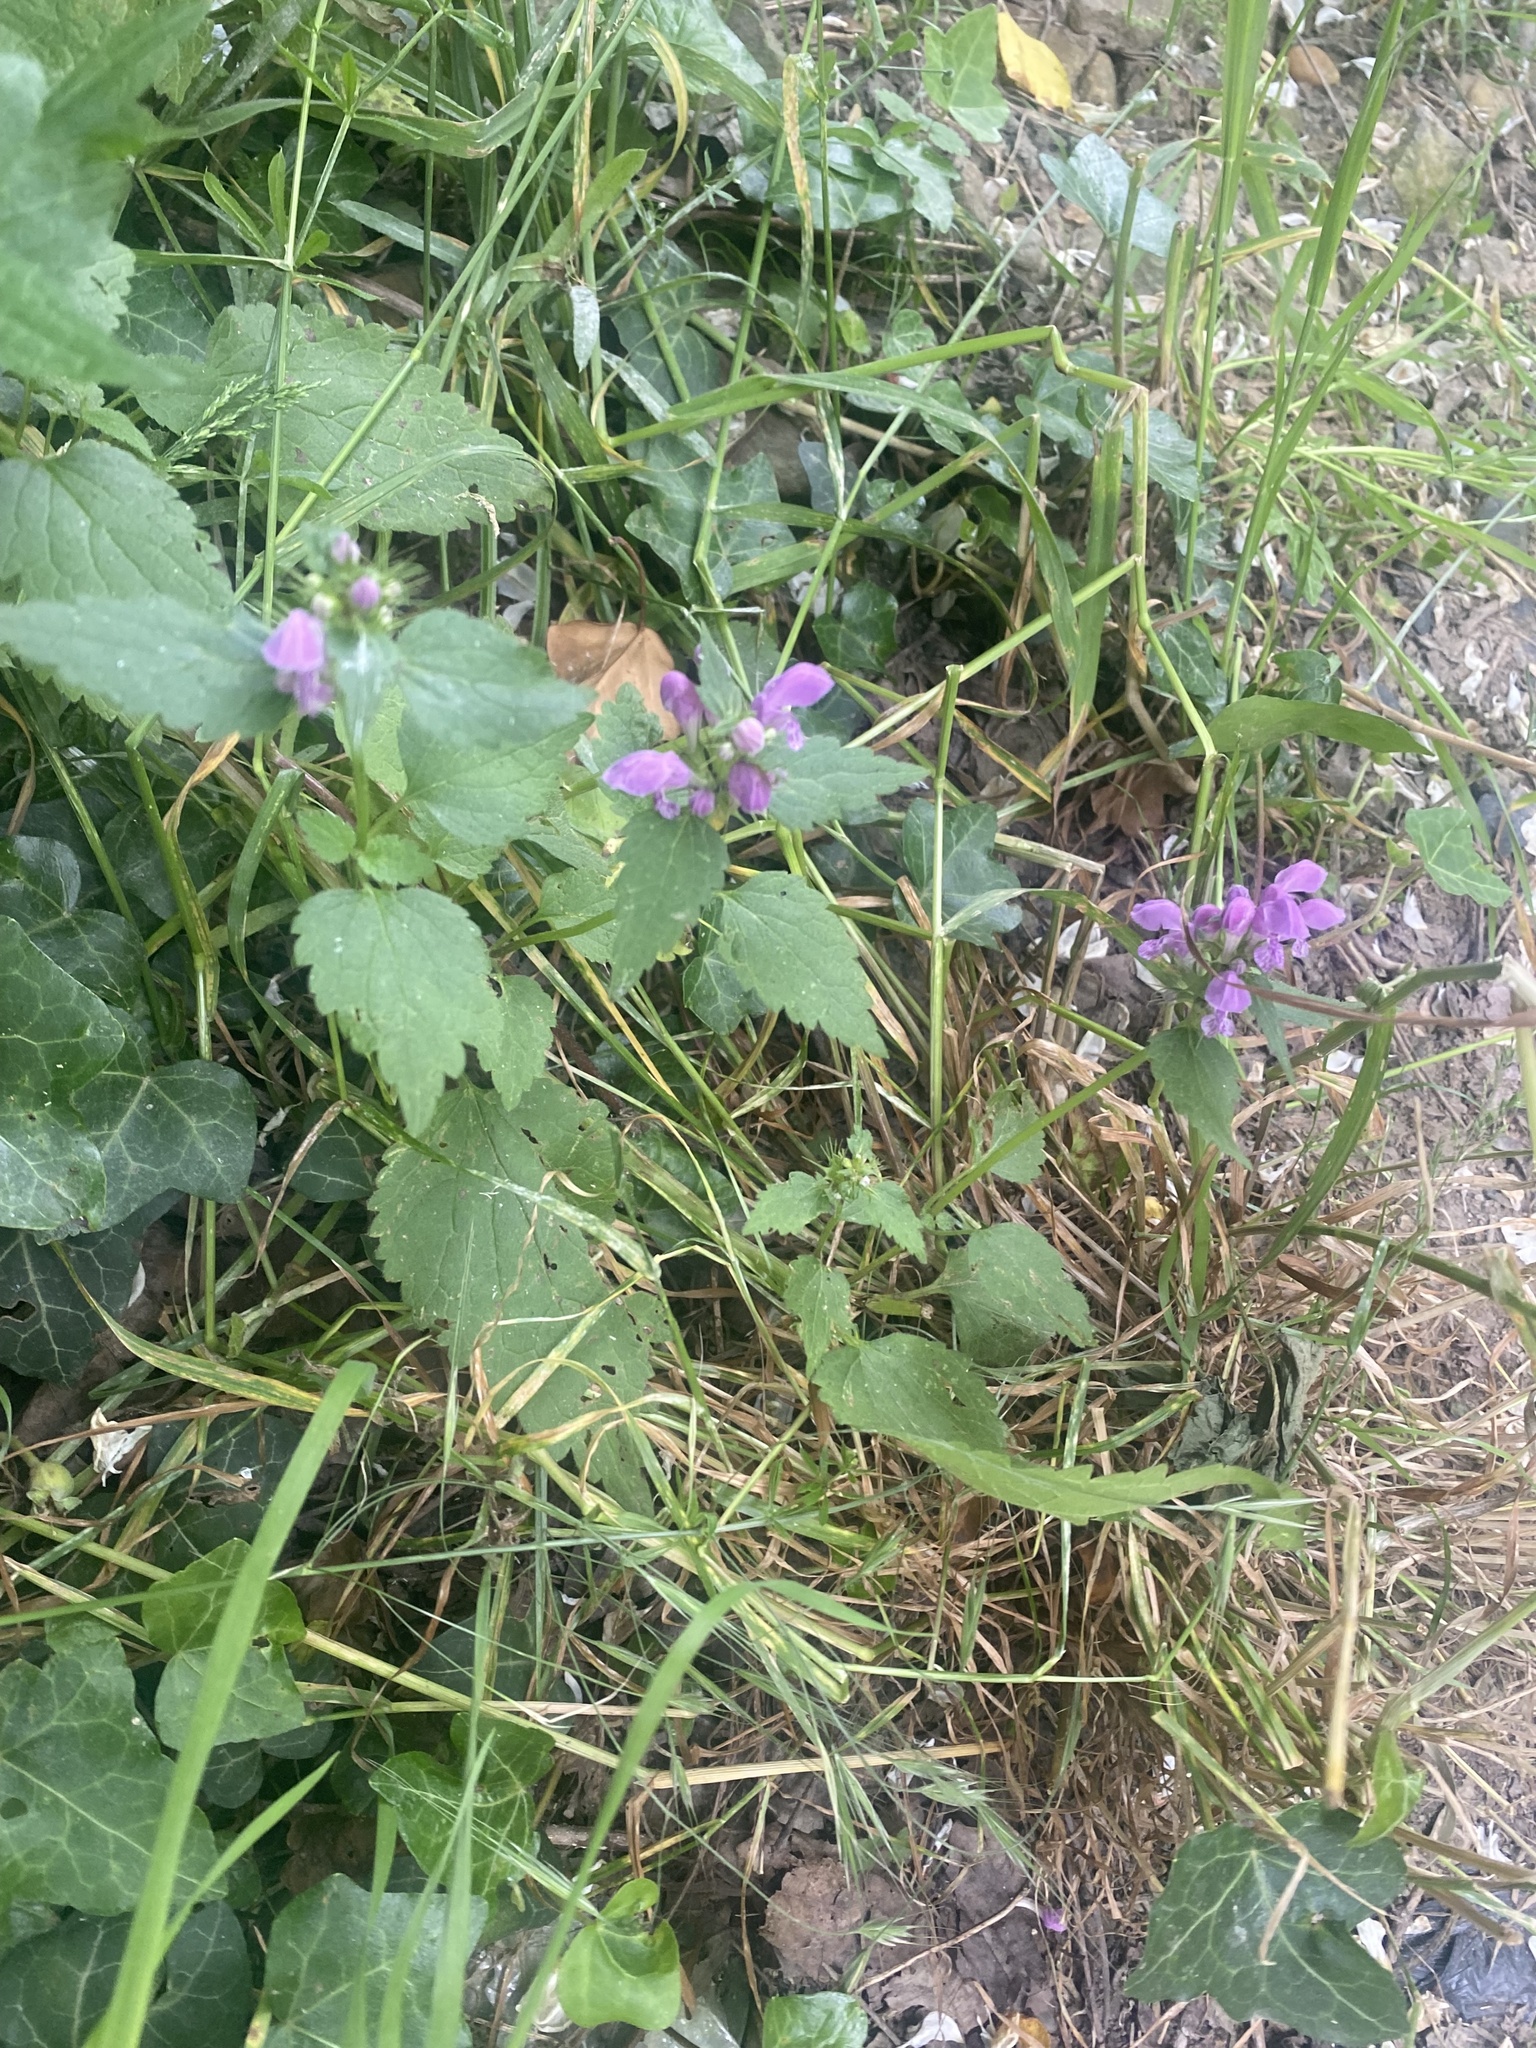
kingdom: Plantae
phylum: Tracheophyta
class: Magnoliopsida
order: Lamiales
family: Lamiaceae
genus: Lamium
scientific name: Lamium maculatum
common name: Spotted dead-nettle
